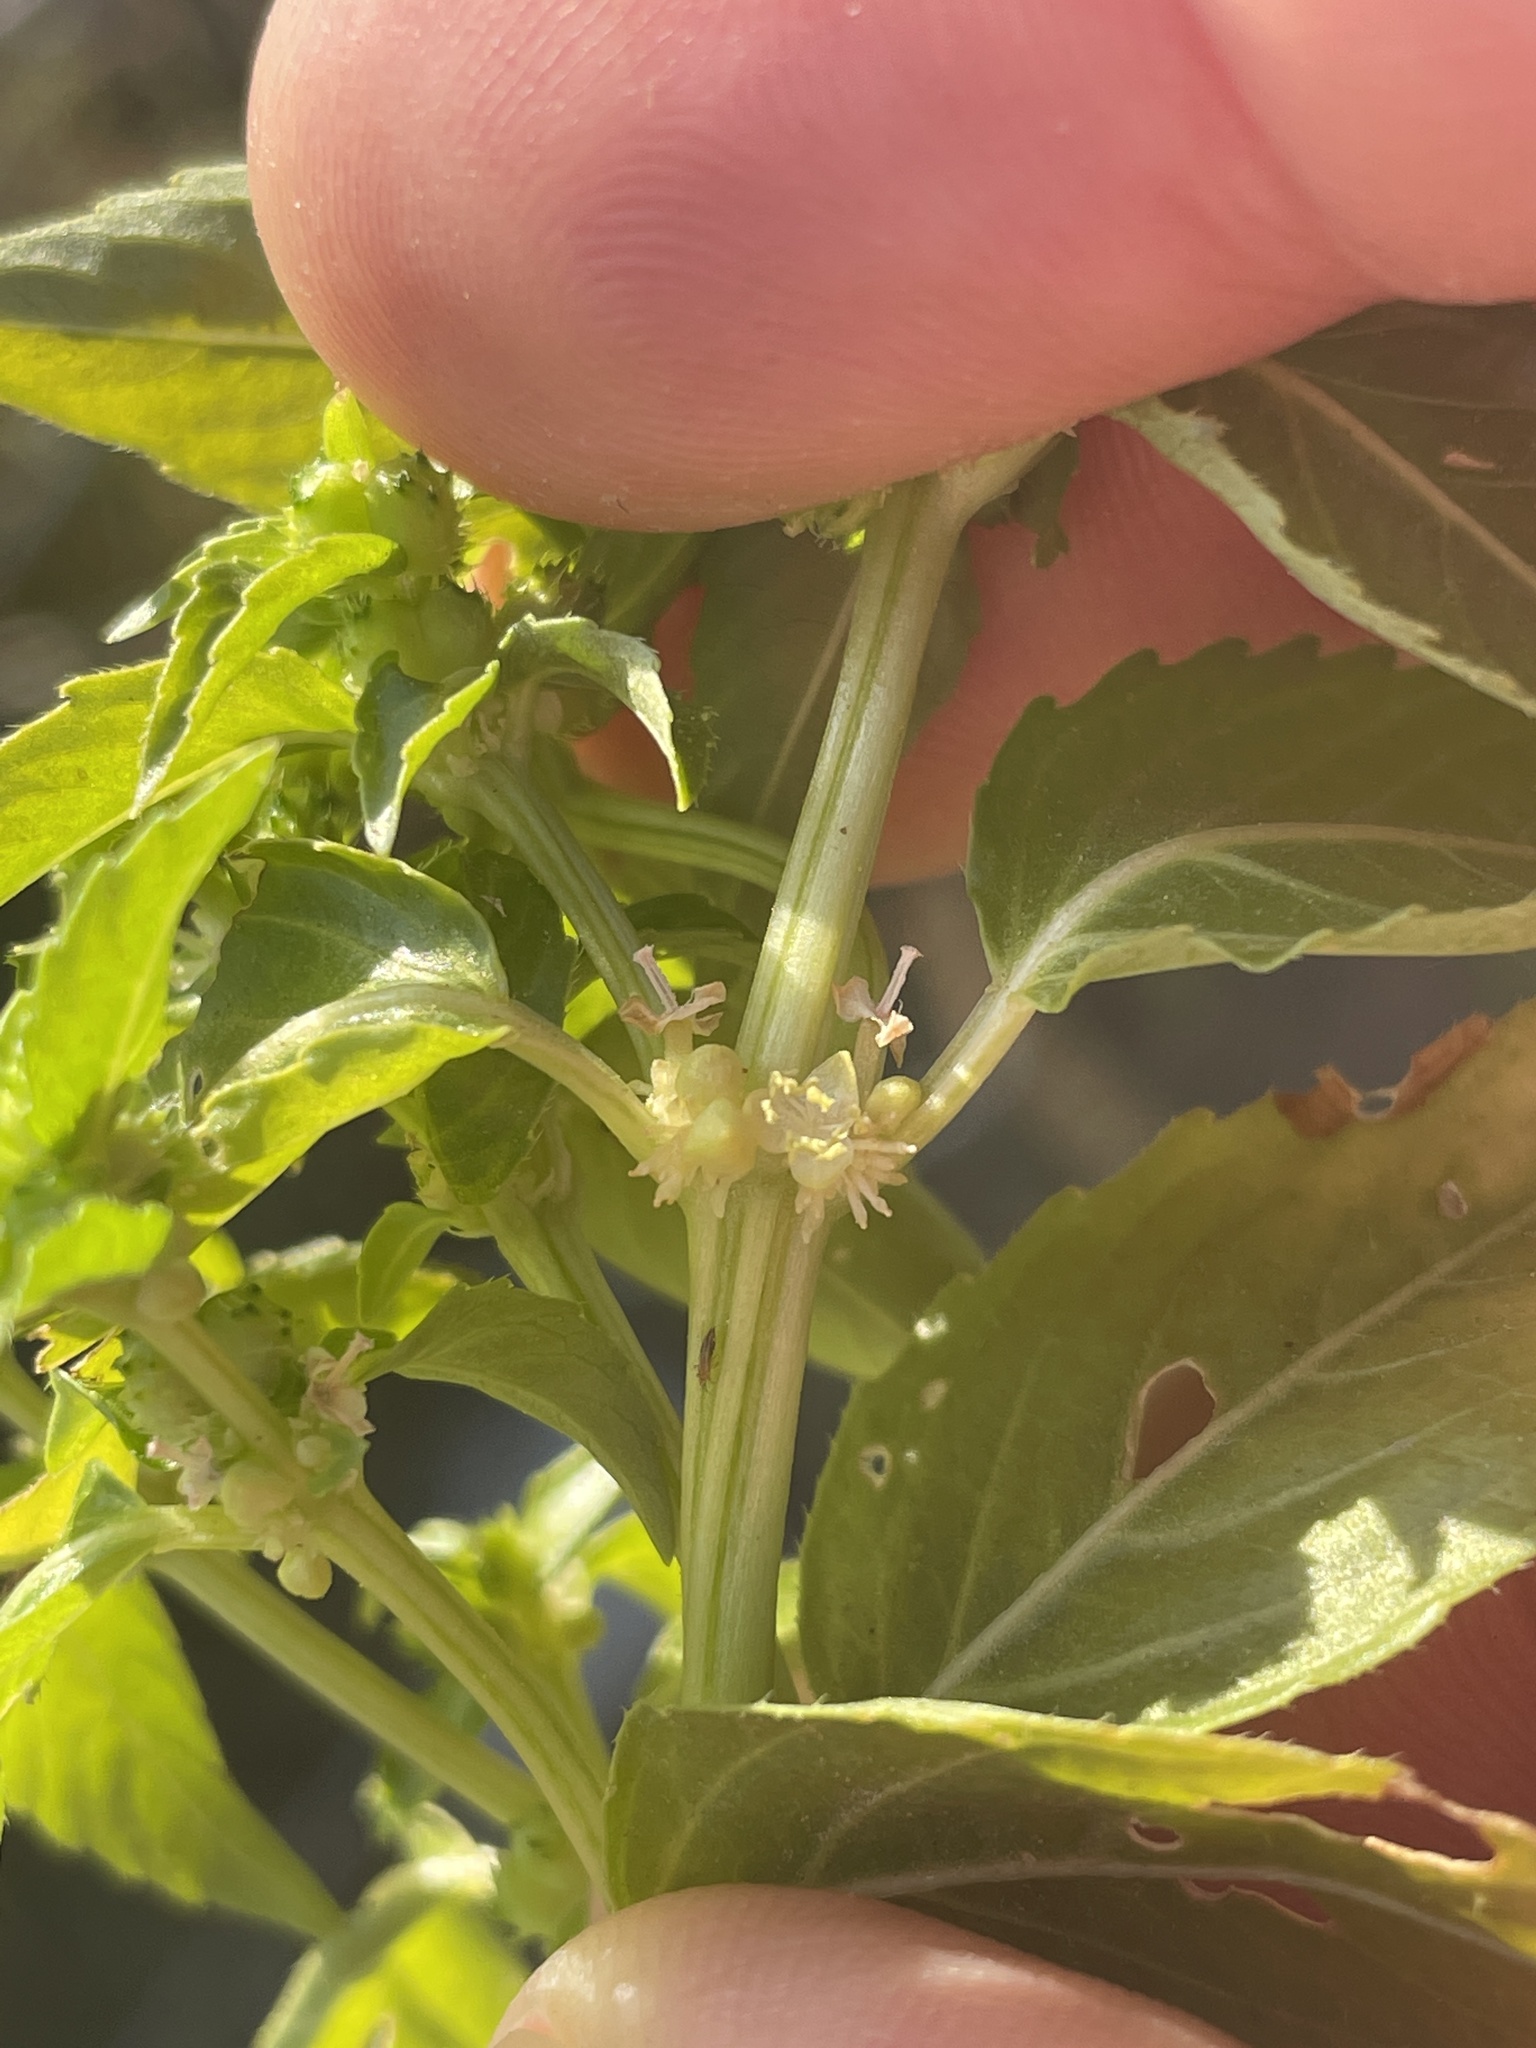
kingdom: Plantae
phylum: Tracheophyta
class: Magnoliopsida
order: Malpighiales
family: Euphorbiaceae
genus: Mercurialis
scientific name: Mercurialis annua
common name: Annual mercury
